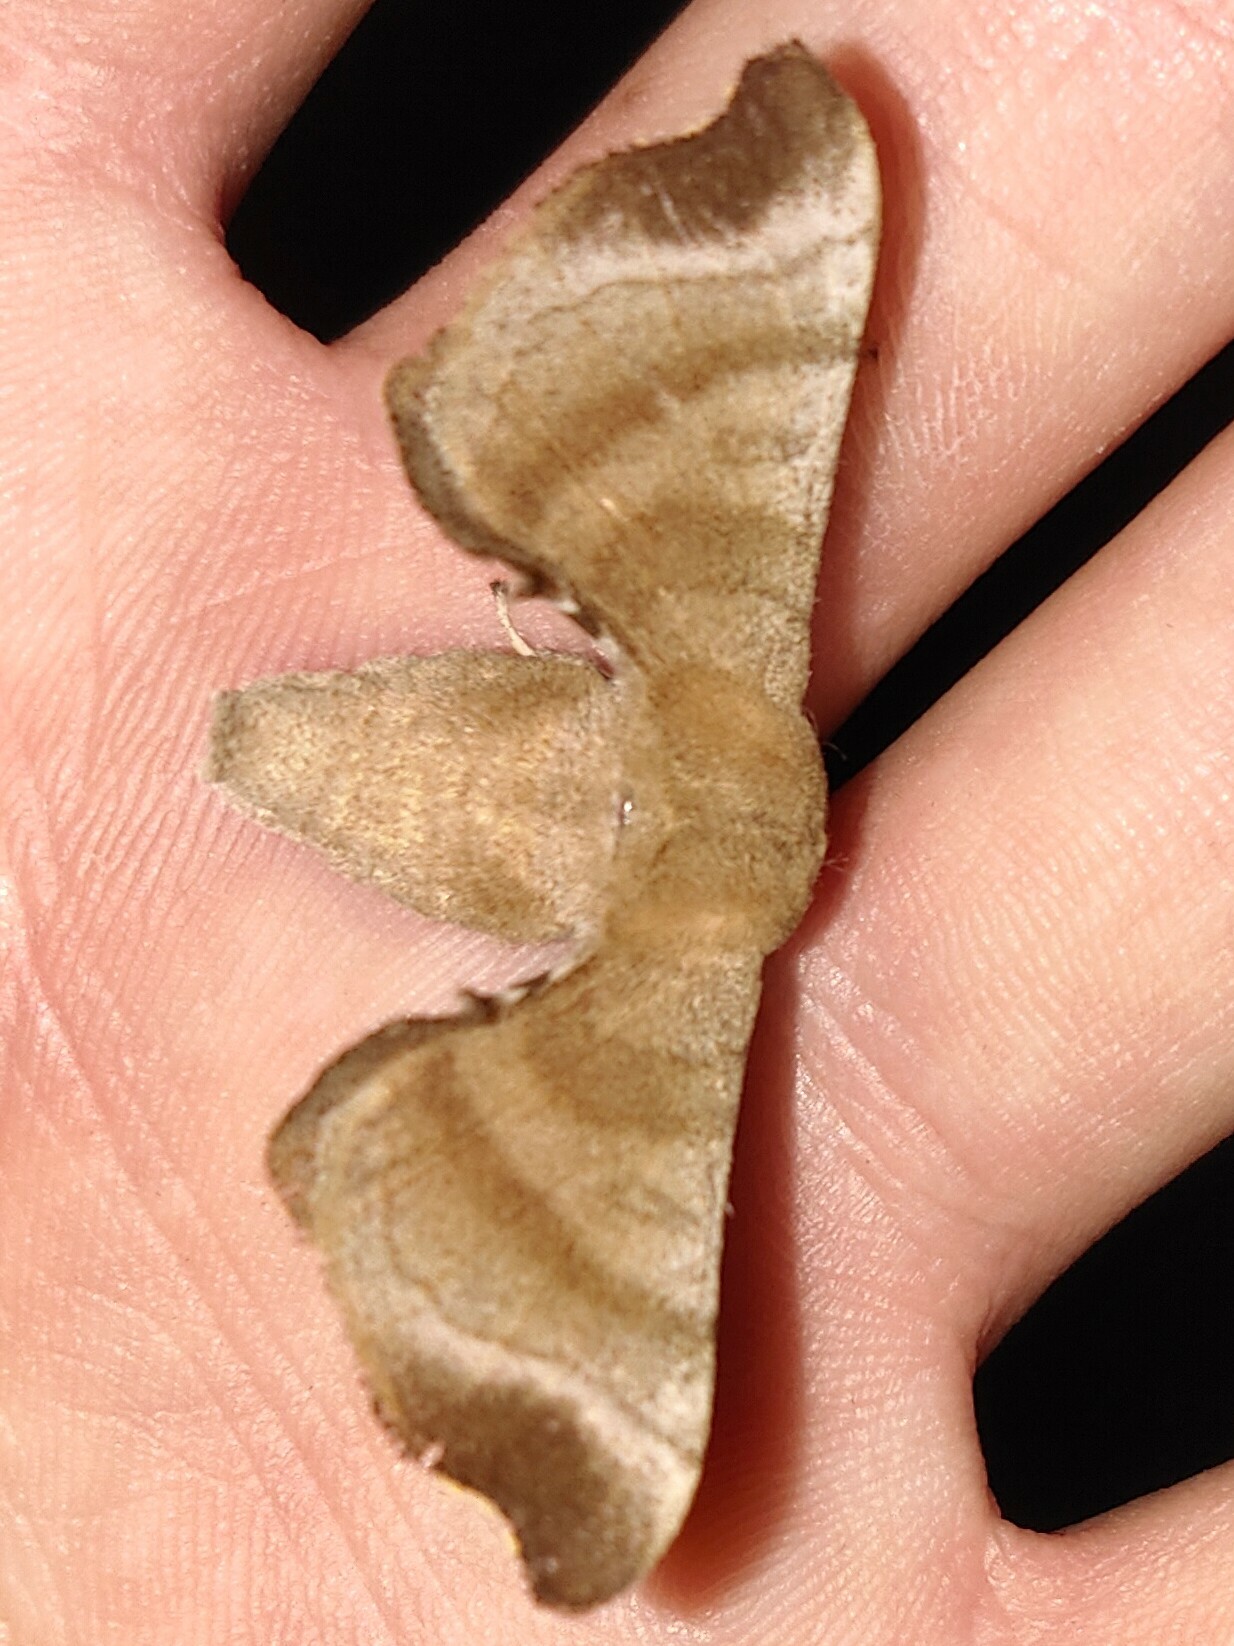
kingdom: Animalia
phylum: Arthropoda
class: Insecta
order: Lepidoptera
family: Bombycidae
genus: Bombyx
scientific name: Bombyx mandarina
